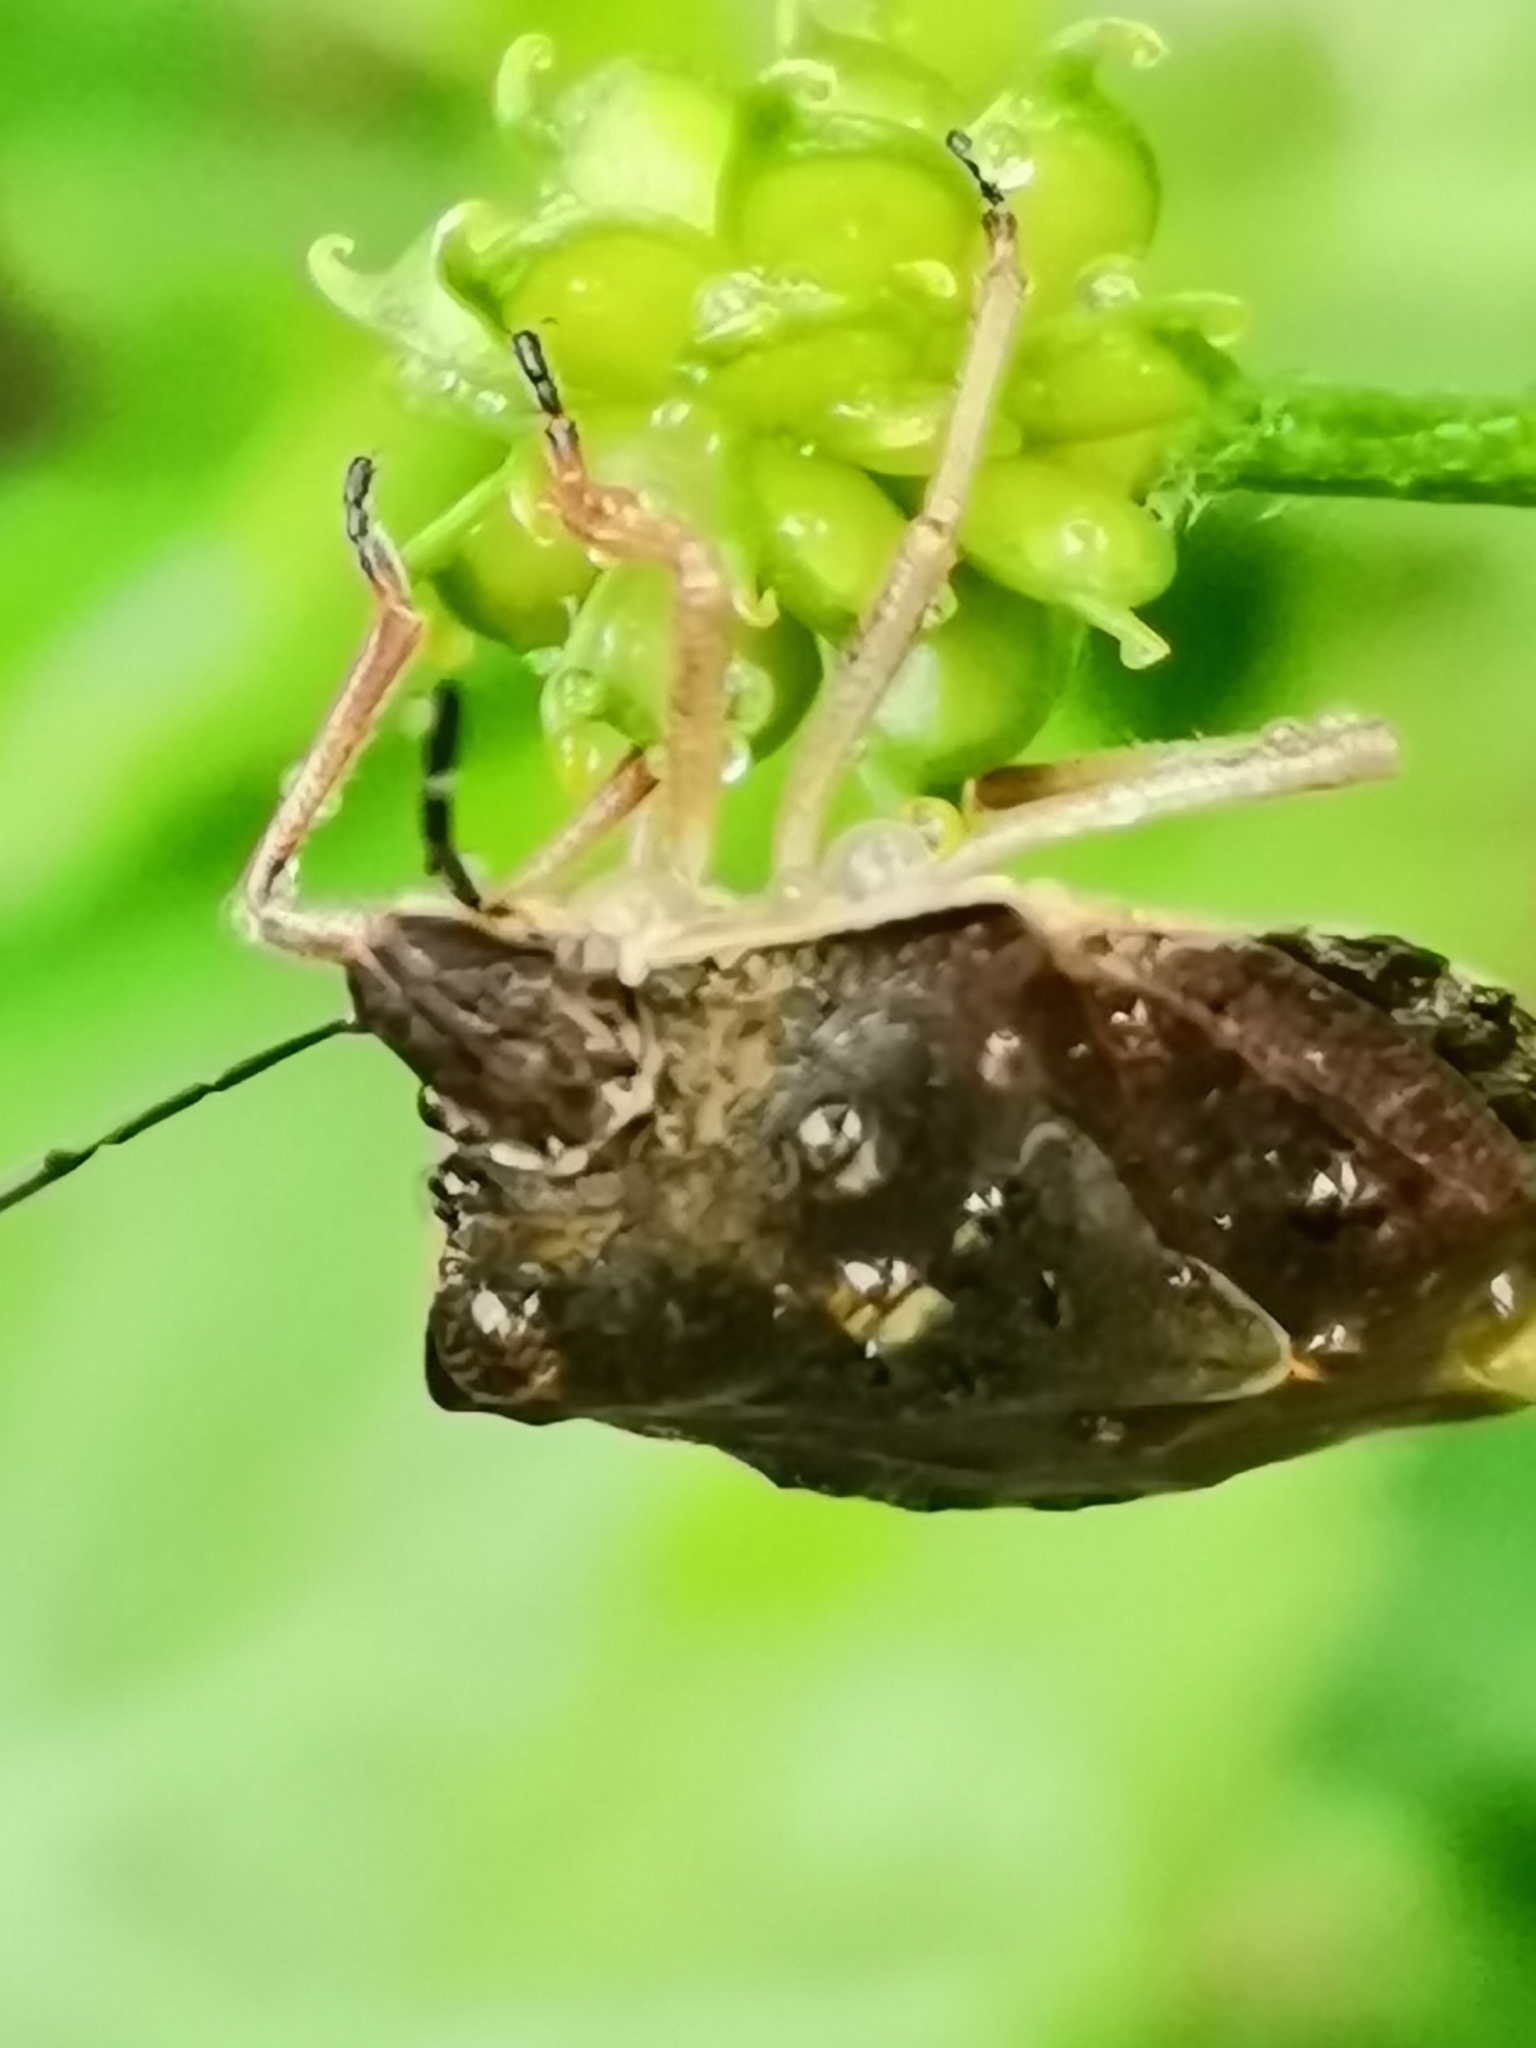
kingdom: Animalia
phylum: Arthropoda
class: Insecta
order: Hemiptera
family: Pentatomidae
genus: Carpocoris
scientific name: Carpocoris melanocerus
